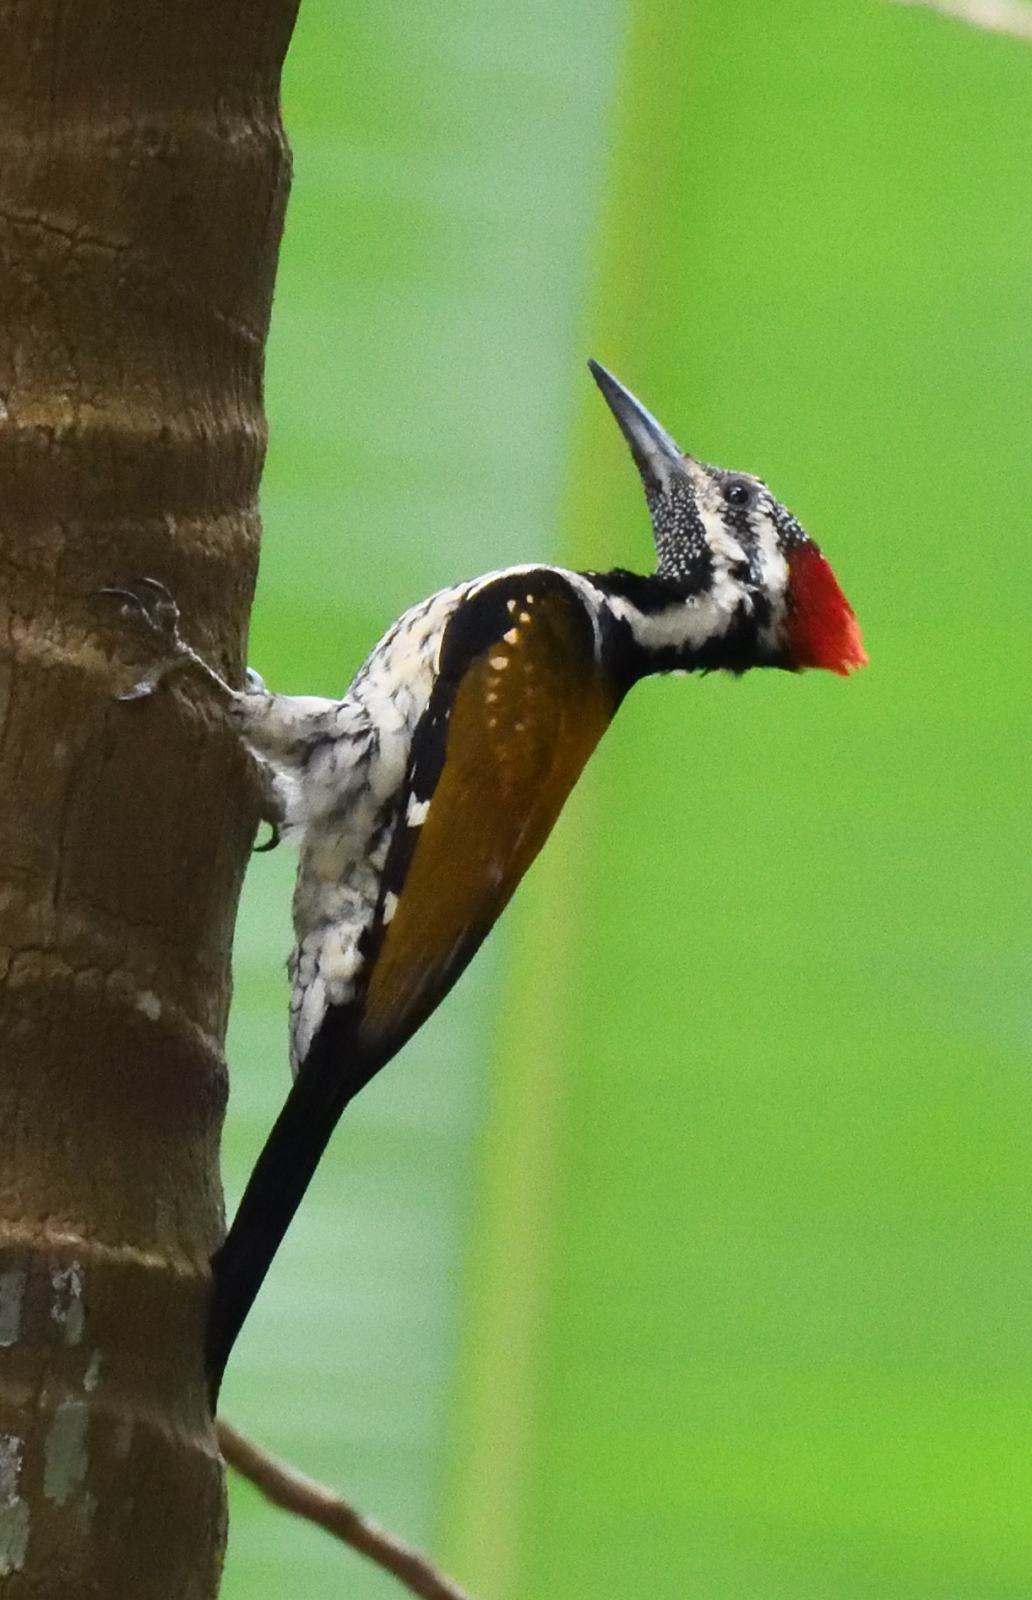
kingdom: Animalia
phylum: Chordata
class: Aves
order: Piciformes
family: Picidae
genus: Dinopium
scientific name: Dinopium benghalense
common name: Black-rumped flameback
